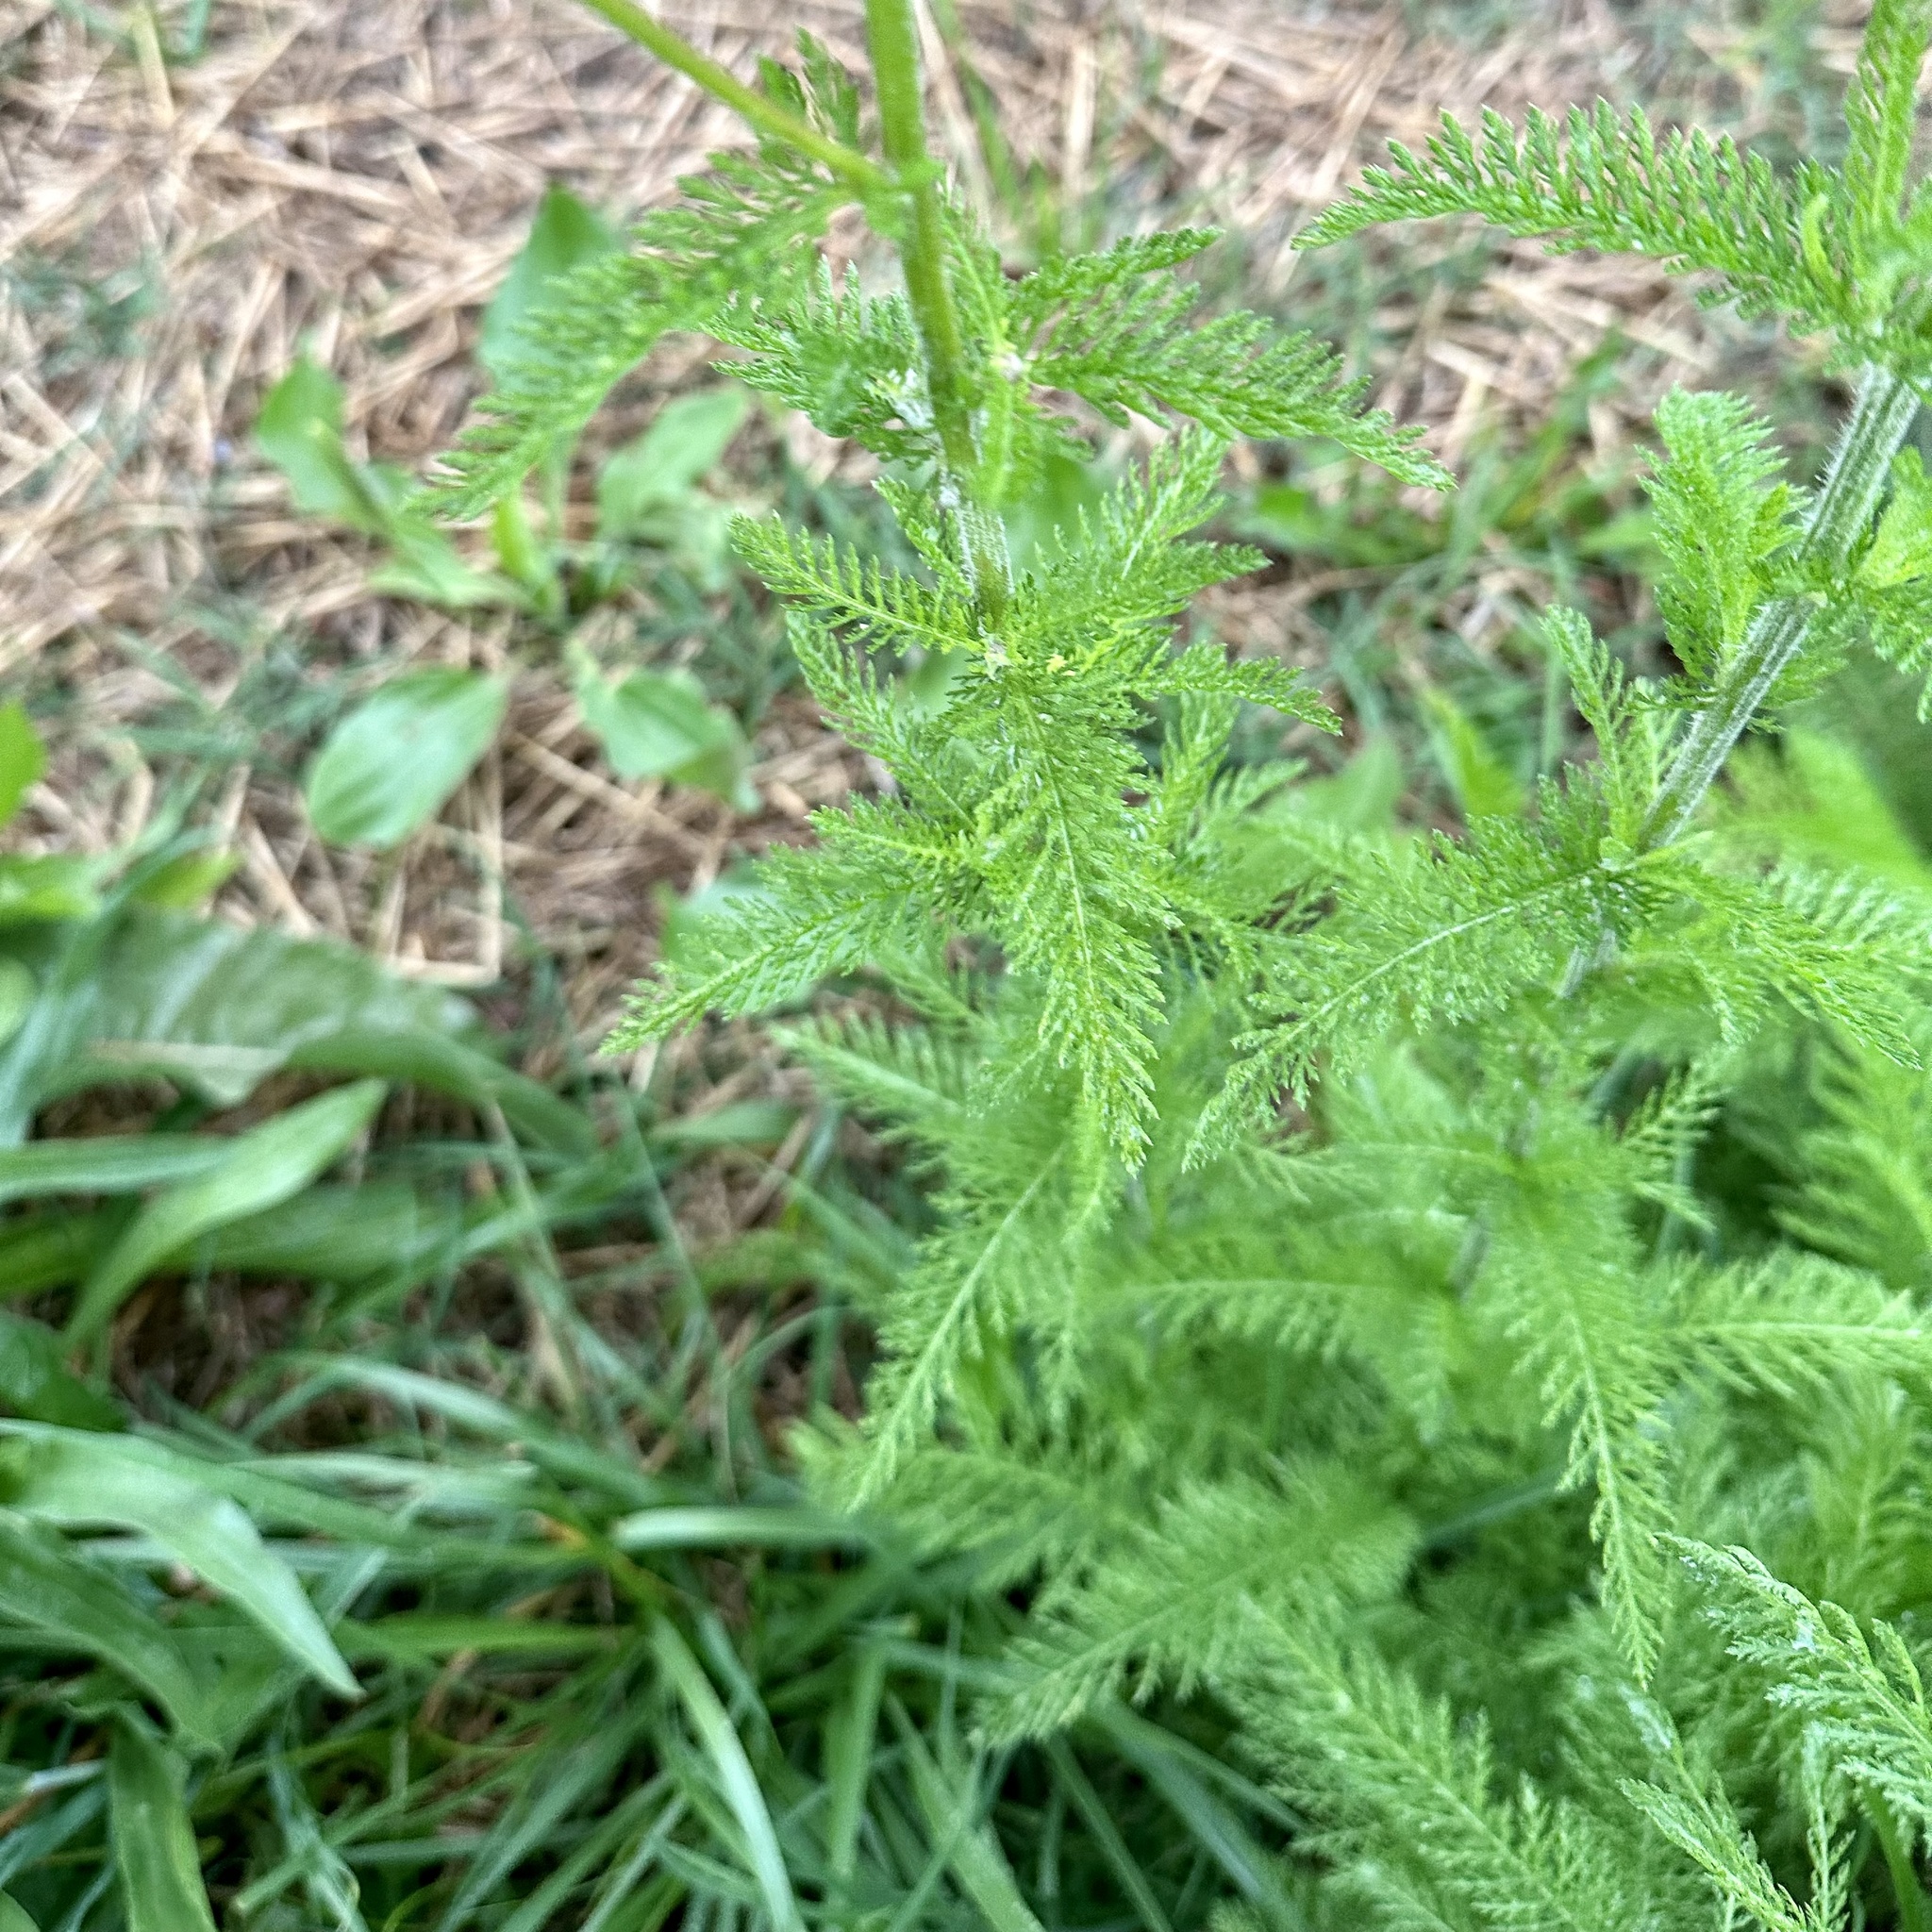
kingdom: Plantae
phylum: Tracheophyta
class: Magnoliopsida
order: Asterales
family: Asteraceae
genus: Achillea
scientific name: Achillea millefolium
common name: Yarrow
